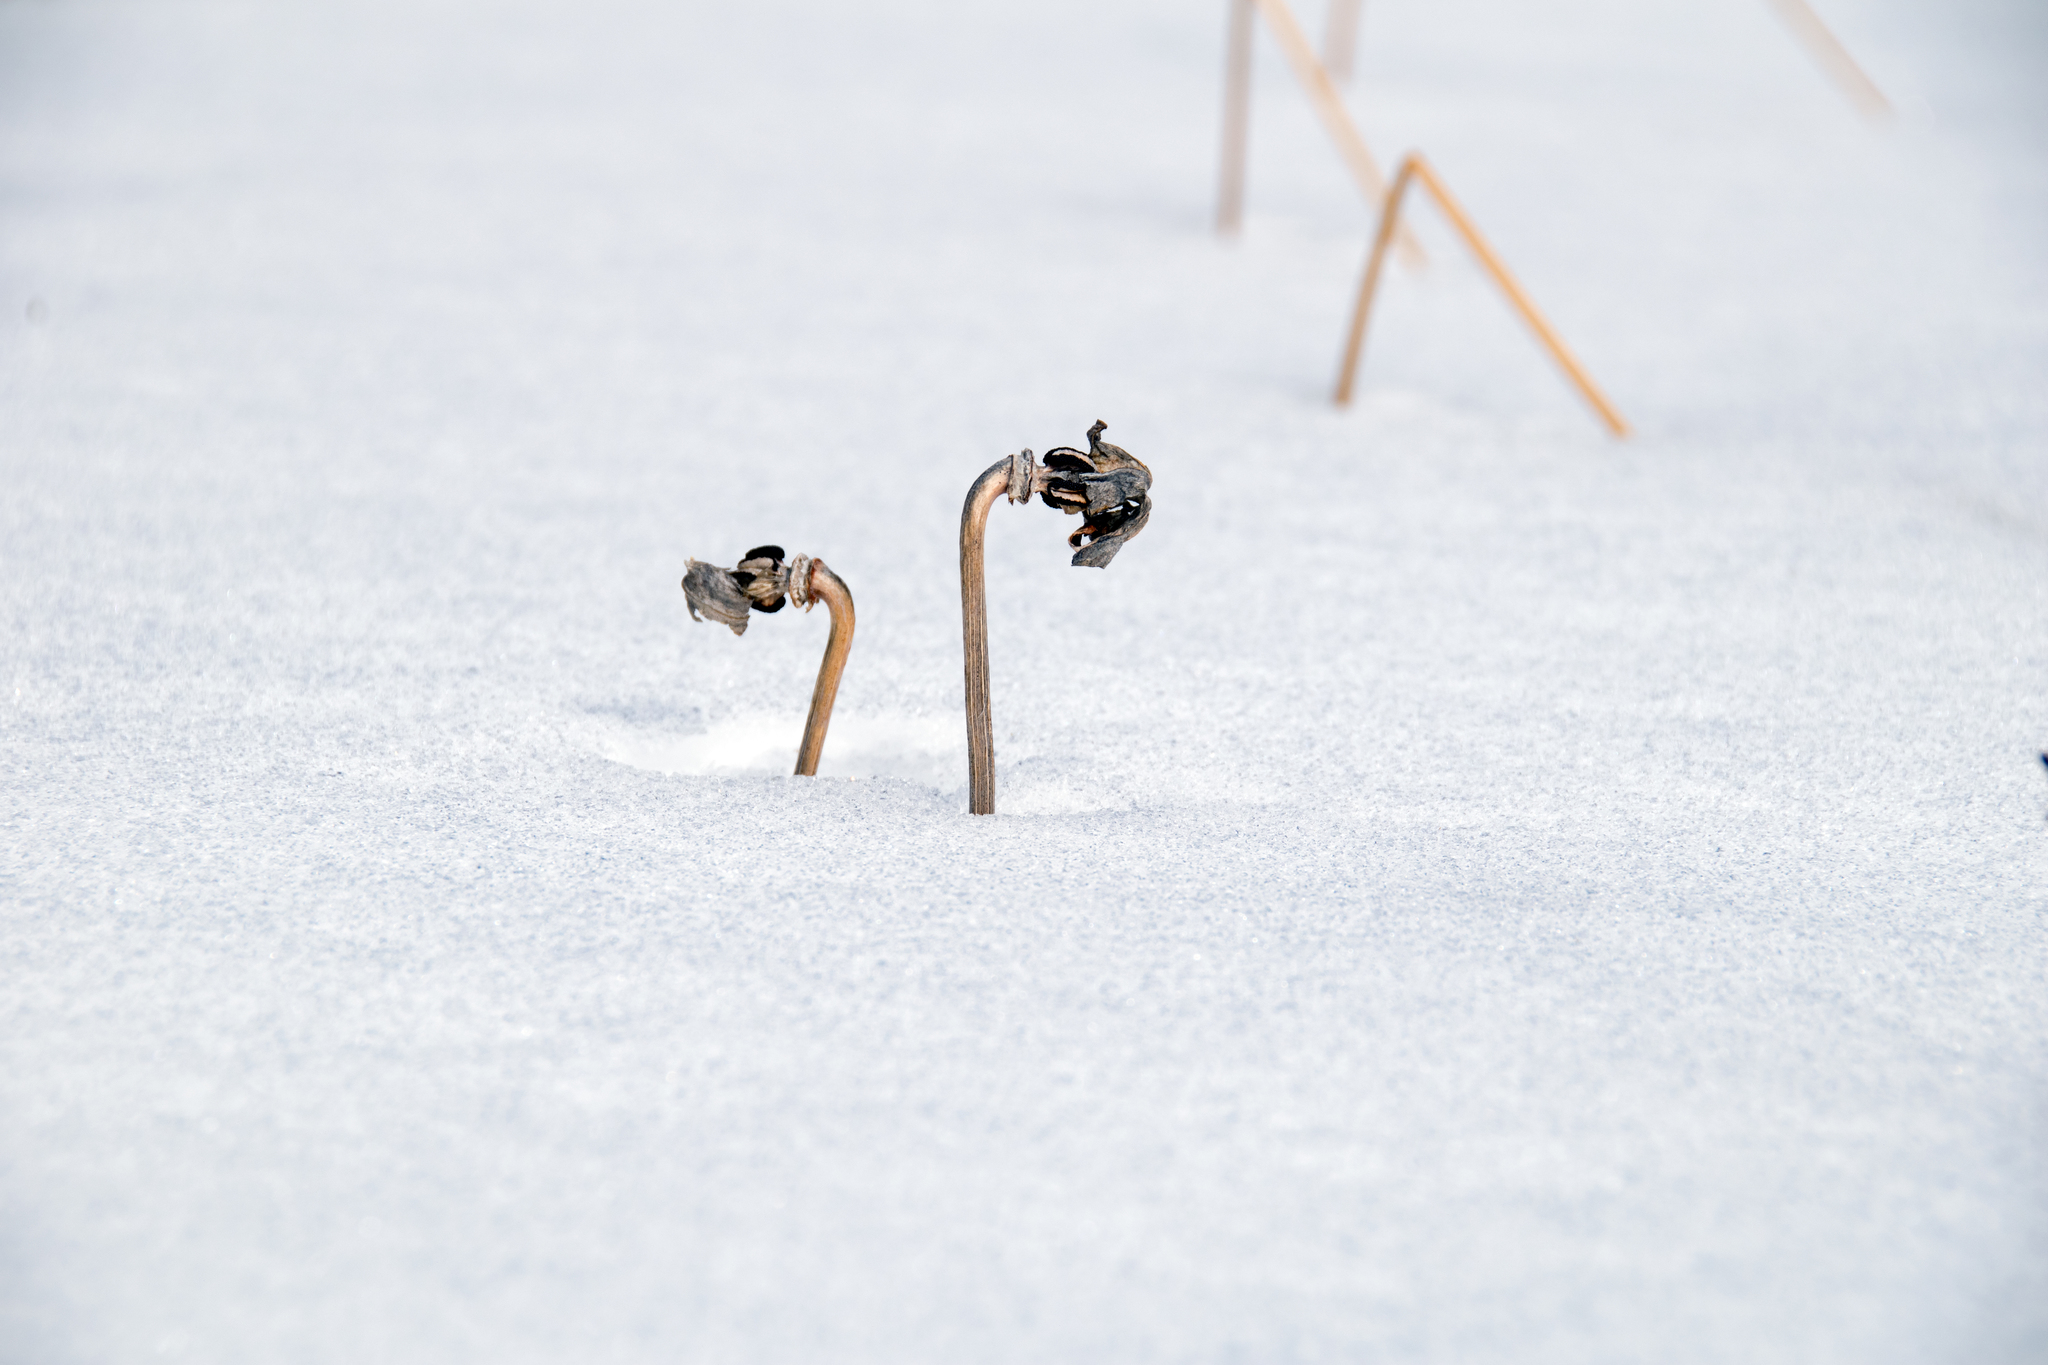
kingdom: Plantae
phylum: Tracheophyta
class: Magnoliopsida
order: Ericales
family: Sarraceniaceae
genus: Sarracenia
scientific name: Sarracenia purpurea
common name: Pitcherplant
